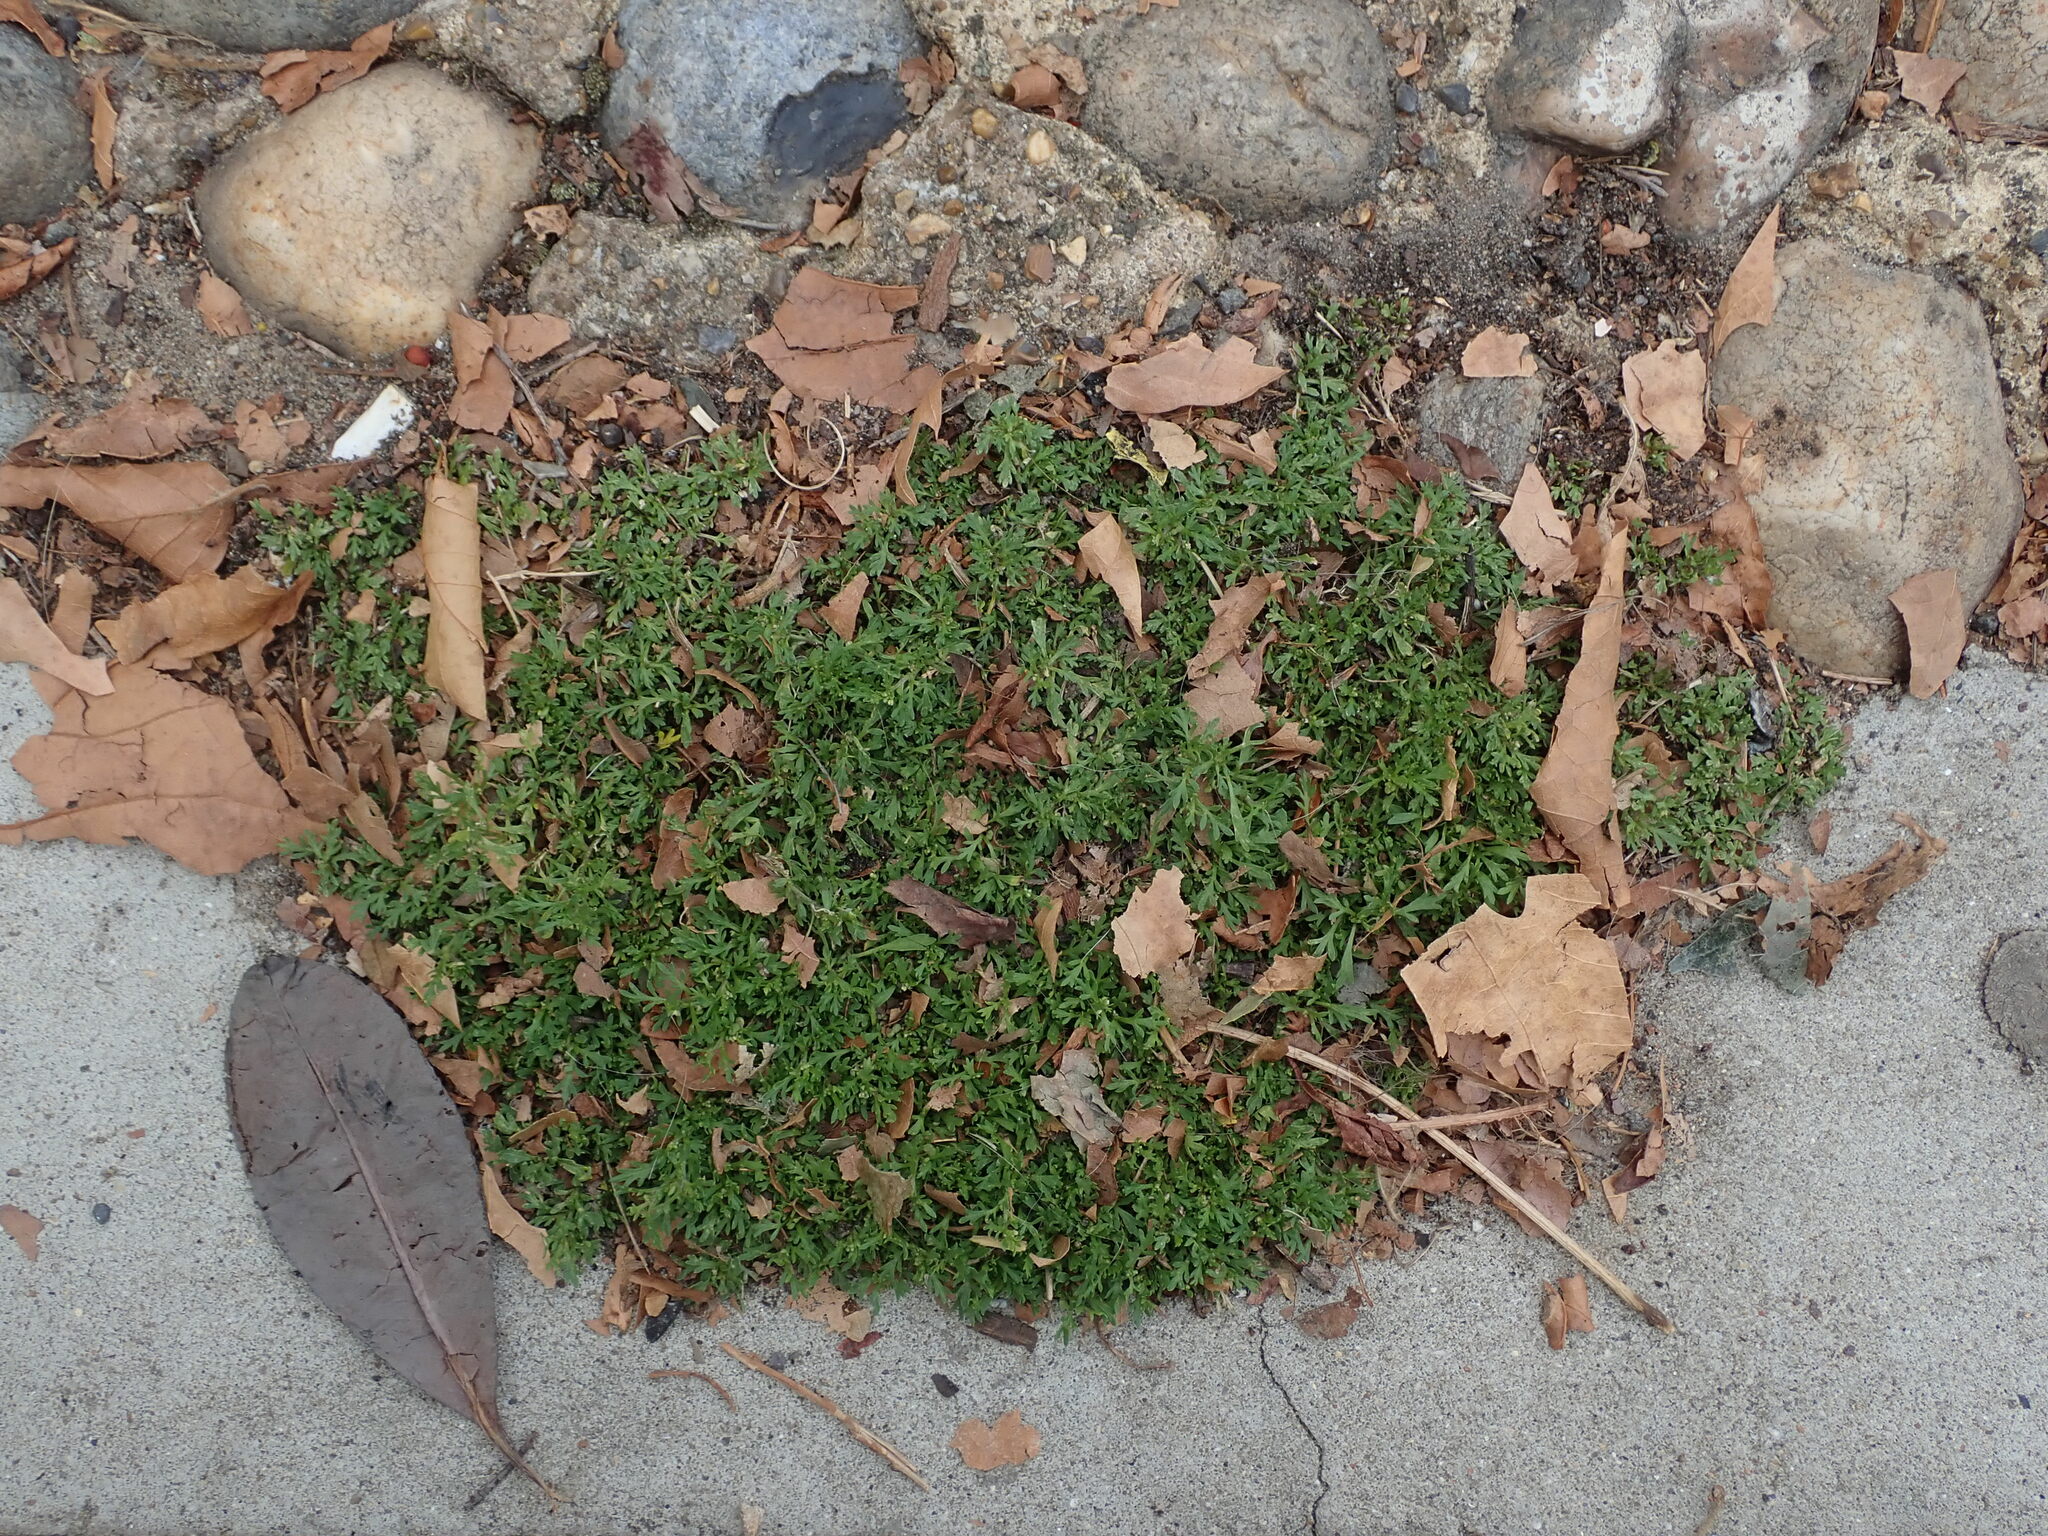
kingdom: Plantae
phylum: Tracheophyta
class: Magnoliopsida
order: Brassicales
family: Brassicaceae
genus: Lepidium
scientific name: Lepidium didymum
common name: Lesser swinecress
